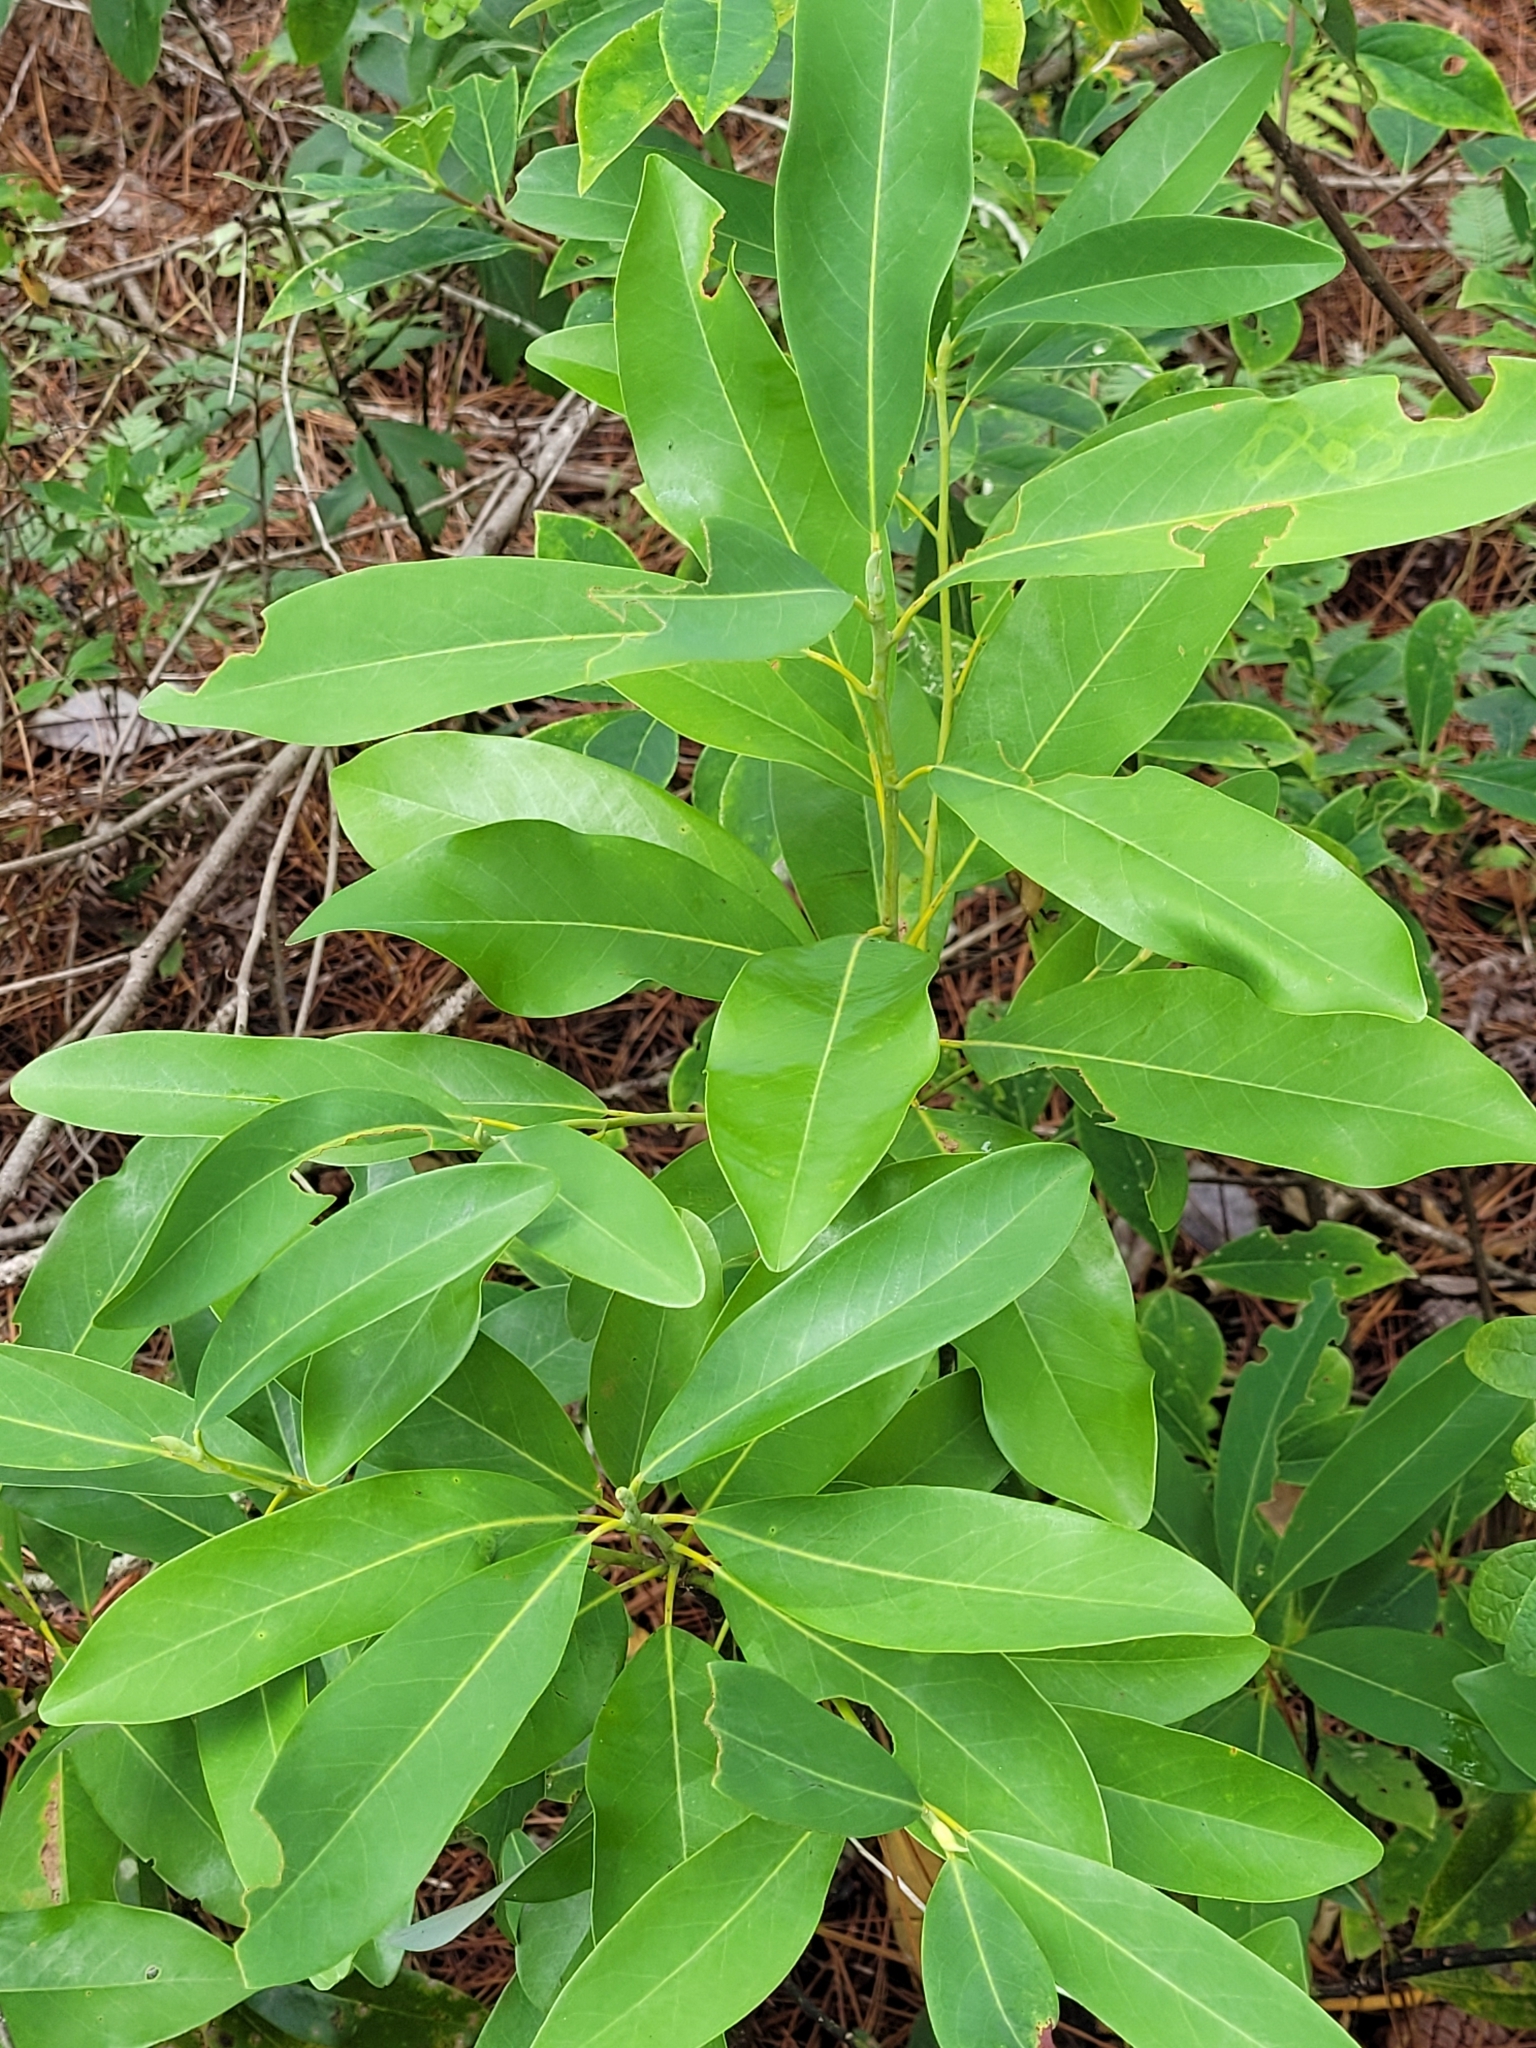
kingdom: Plantae
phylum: Tracheophyta
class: Magnoliopsida
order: Magnoliales
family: Magnoliaceae
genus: Magnolia
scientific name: Magnolia virginiana
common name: Swamp bay
